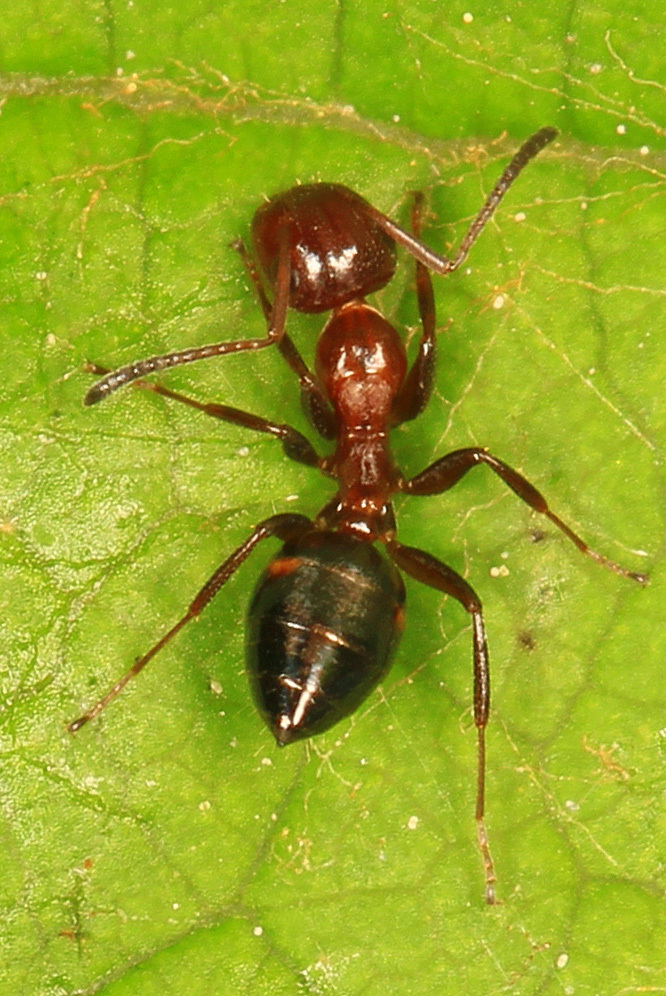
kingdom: Animalia
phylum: Arthropoda
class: Insecta
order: Hymenoptera
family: Formicidae
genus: Colobopsis
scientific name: Colobopsis impressa
